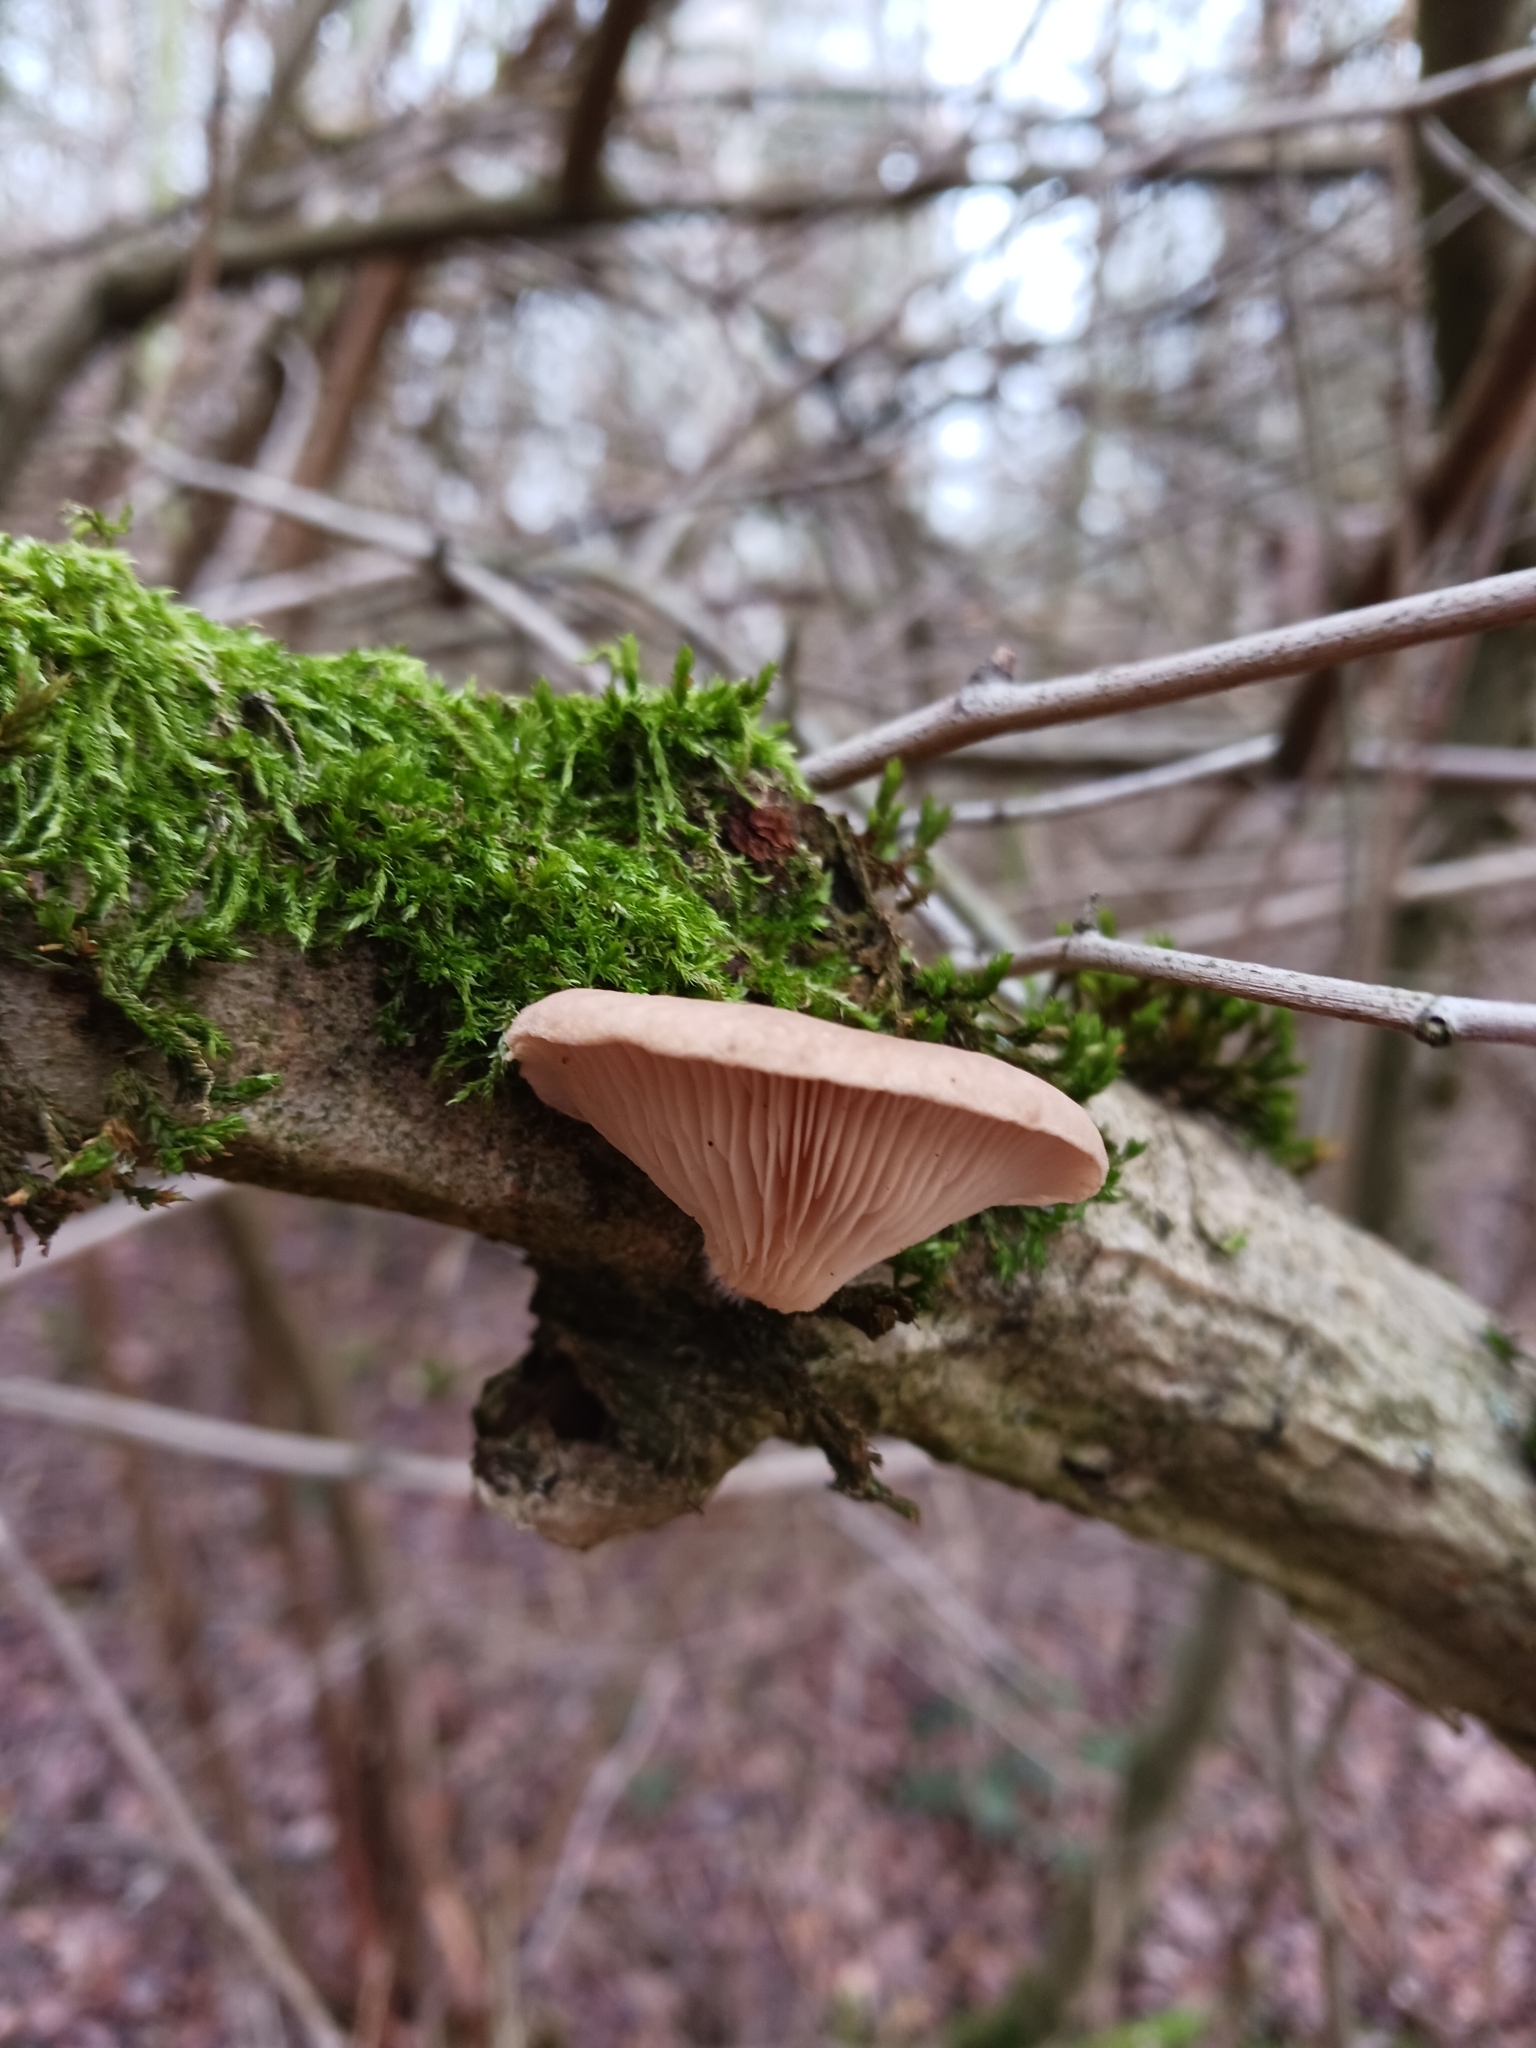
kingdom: Fungi
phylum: Basidiomycota
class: Agaricomycetes
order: Agaricales
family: Pleurotaceae
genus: Pleurotus
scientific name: Pleurotus ostreatus
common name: Oyster mushroom
